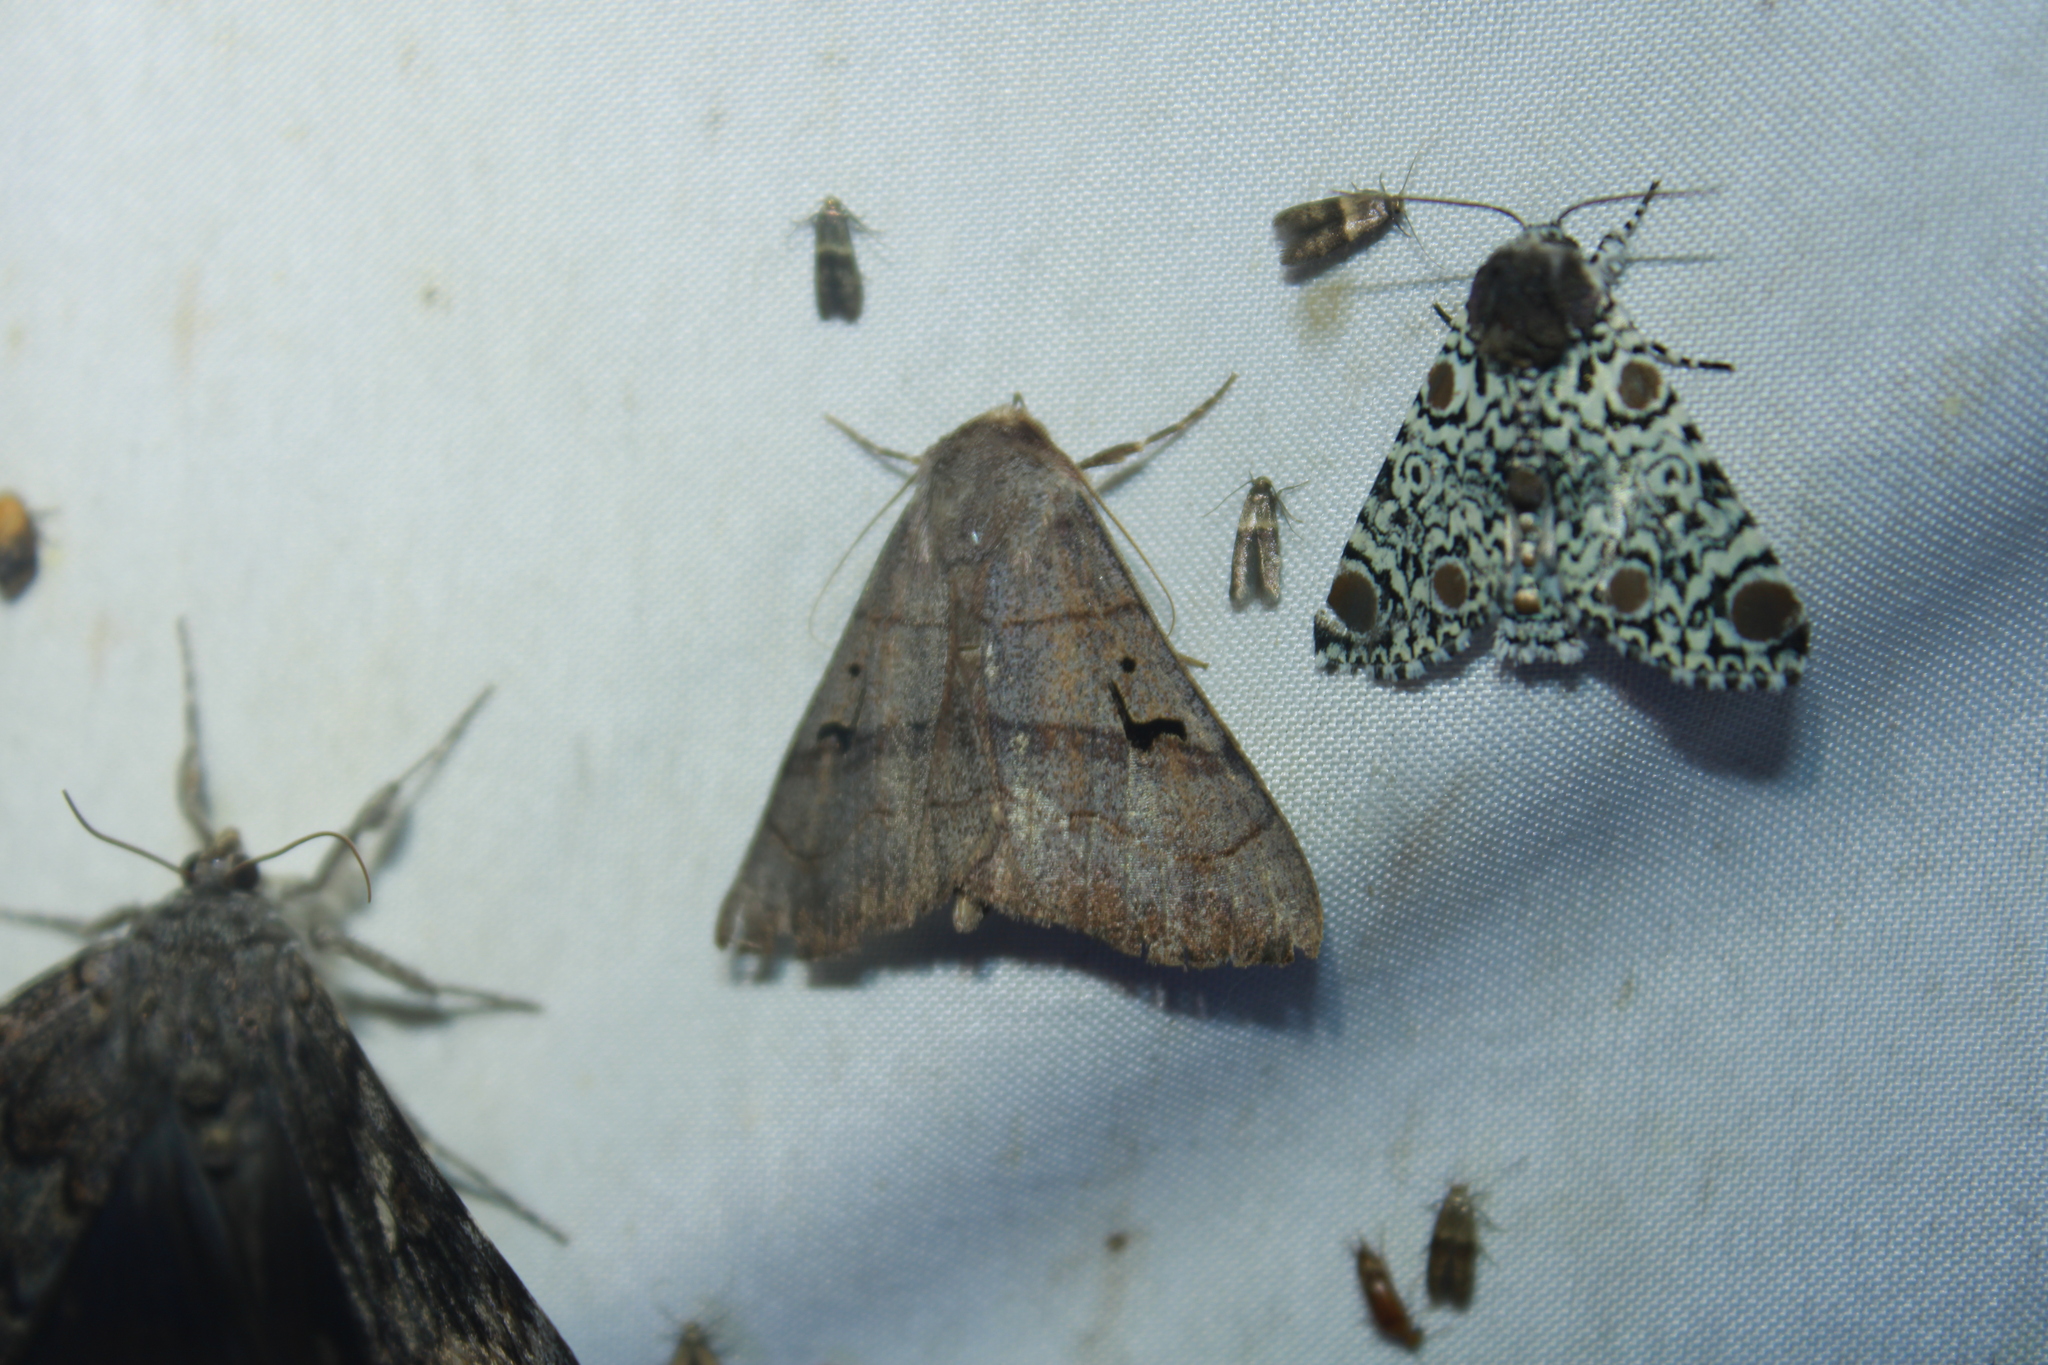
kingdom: Animalia
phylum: Arthropoda
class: Insecta
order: Lepidoptera
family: Erebidae
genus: Panopoda
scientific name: Panopoda carneicosta
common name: Brown panopoda moth
